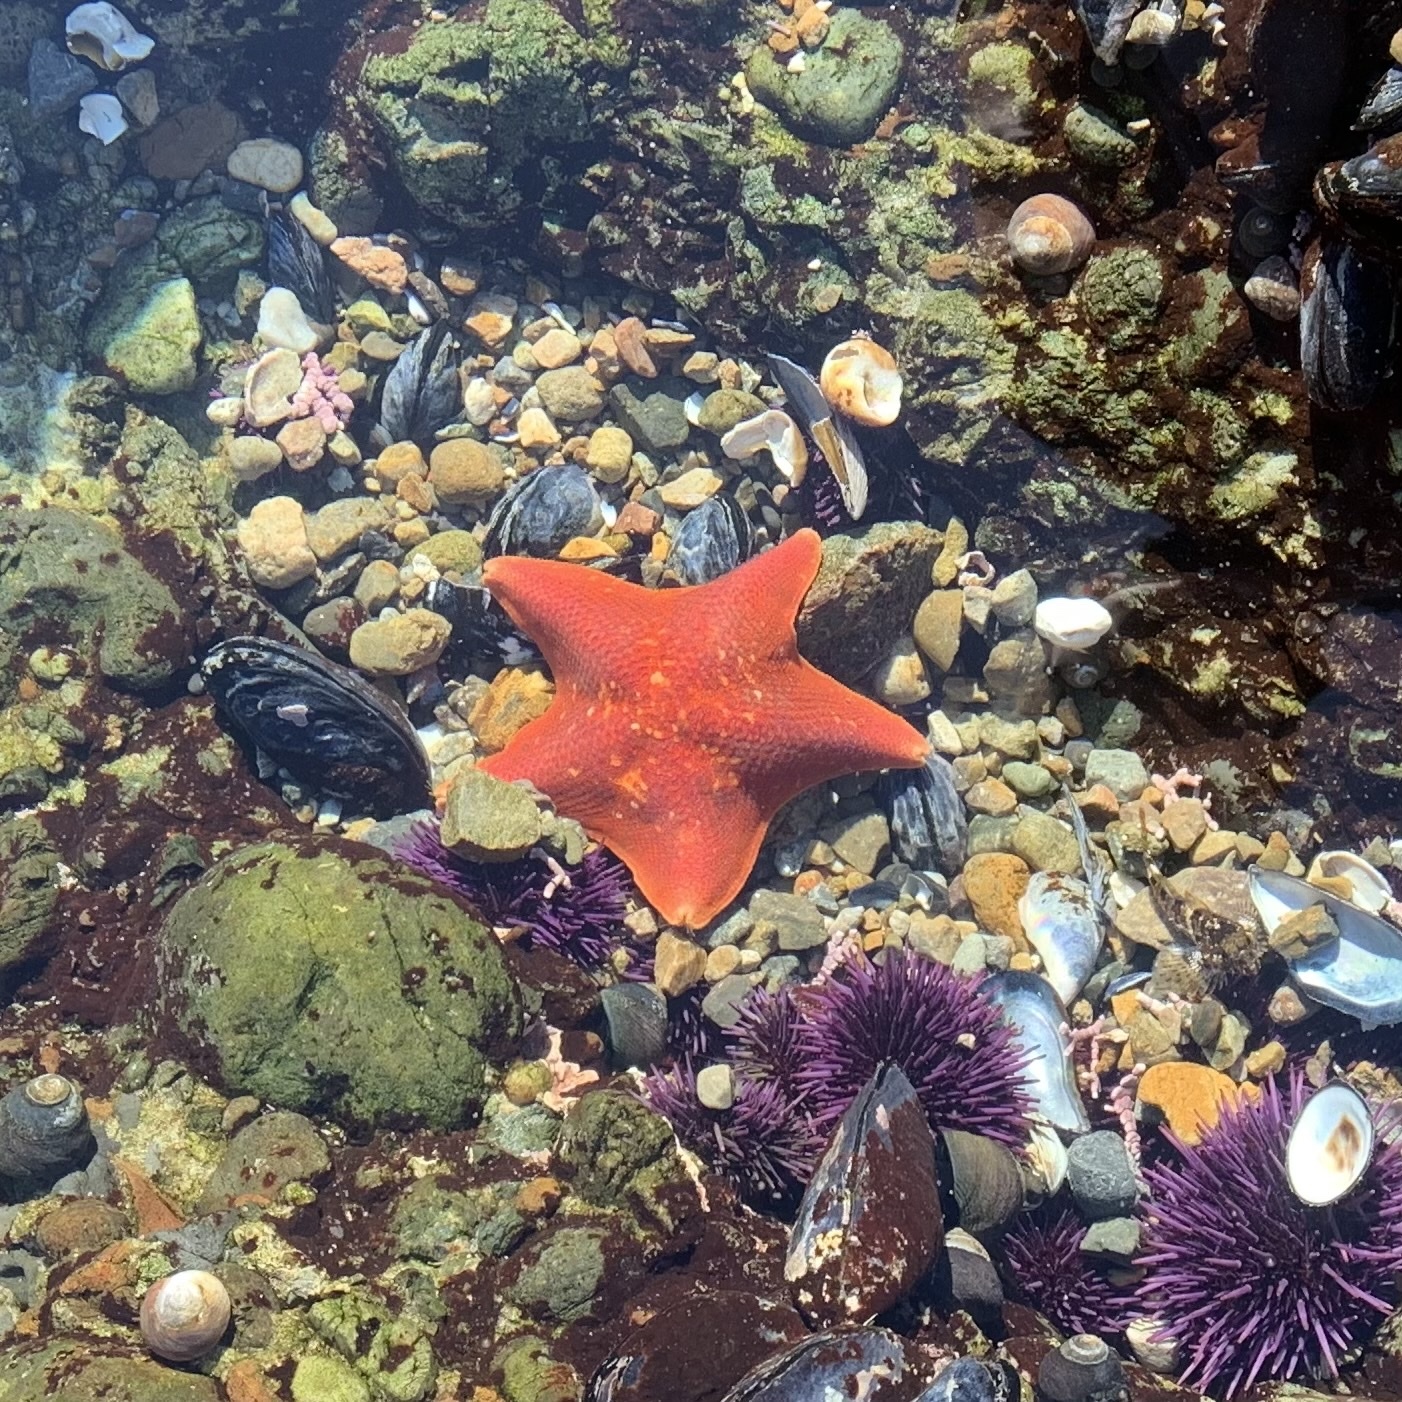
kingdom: Animalia
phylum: Echinodermata
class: Asteroidea
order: Valvatida
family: Asterinidae
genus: Patiria
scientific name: Patiria miniata
